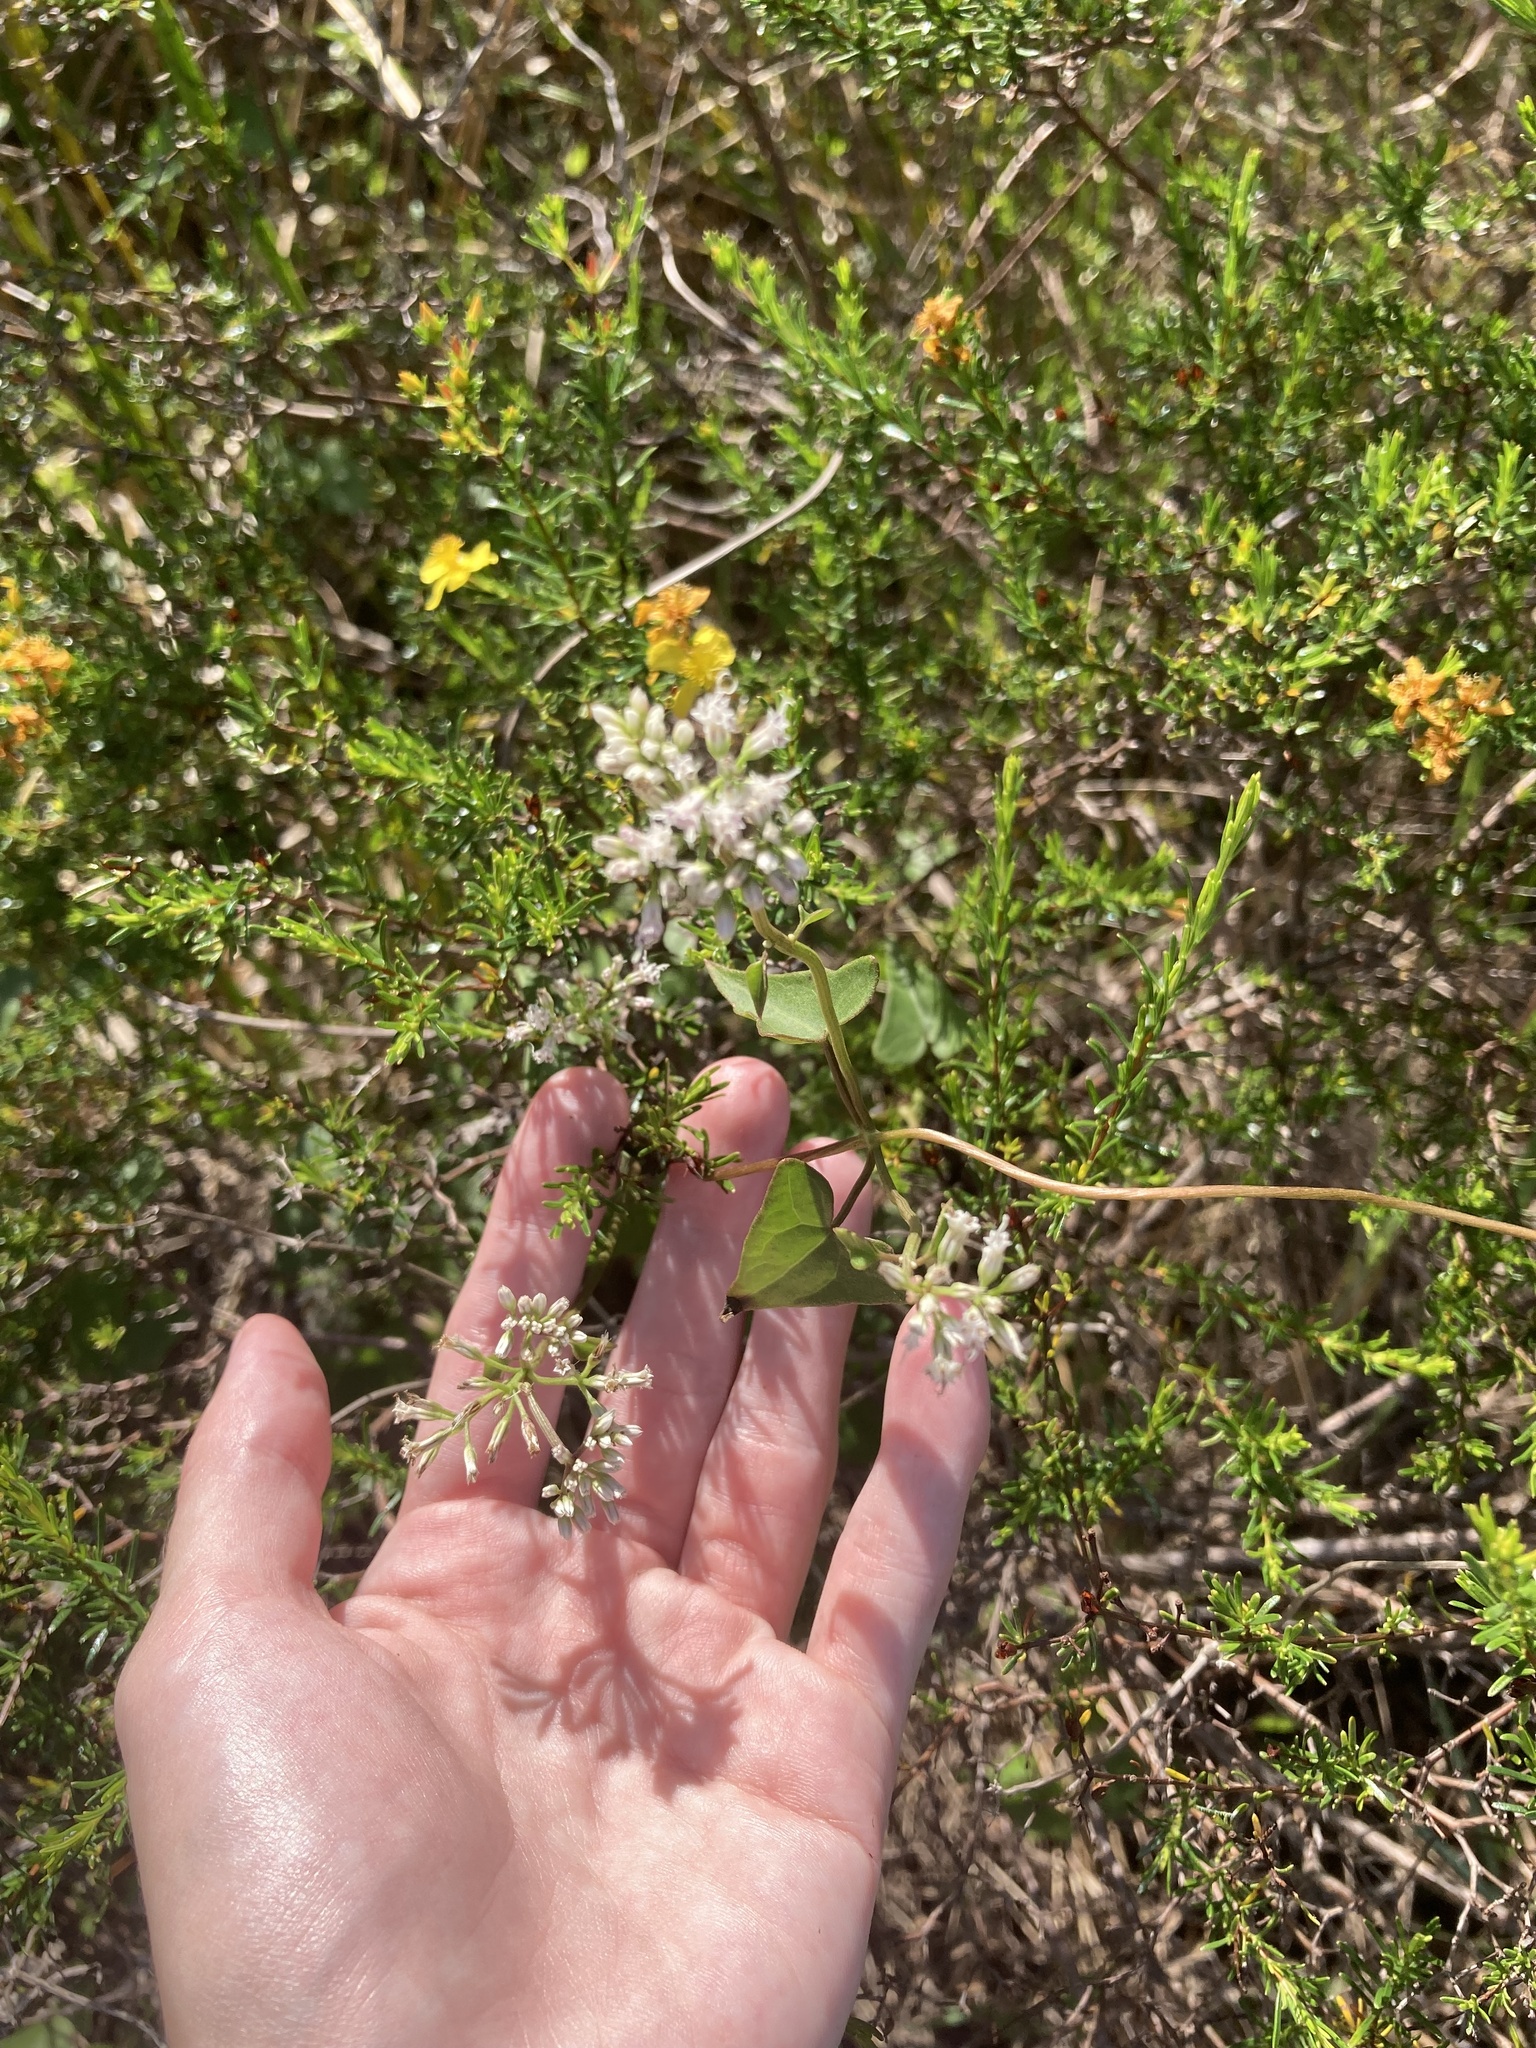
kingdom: Plantae
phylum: Tracheophyta
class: Magnoliopsida
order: Asterales
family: Asteraceae
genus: Mikania
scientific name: Mikania scandens
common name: Climbing hempvine
